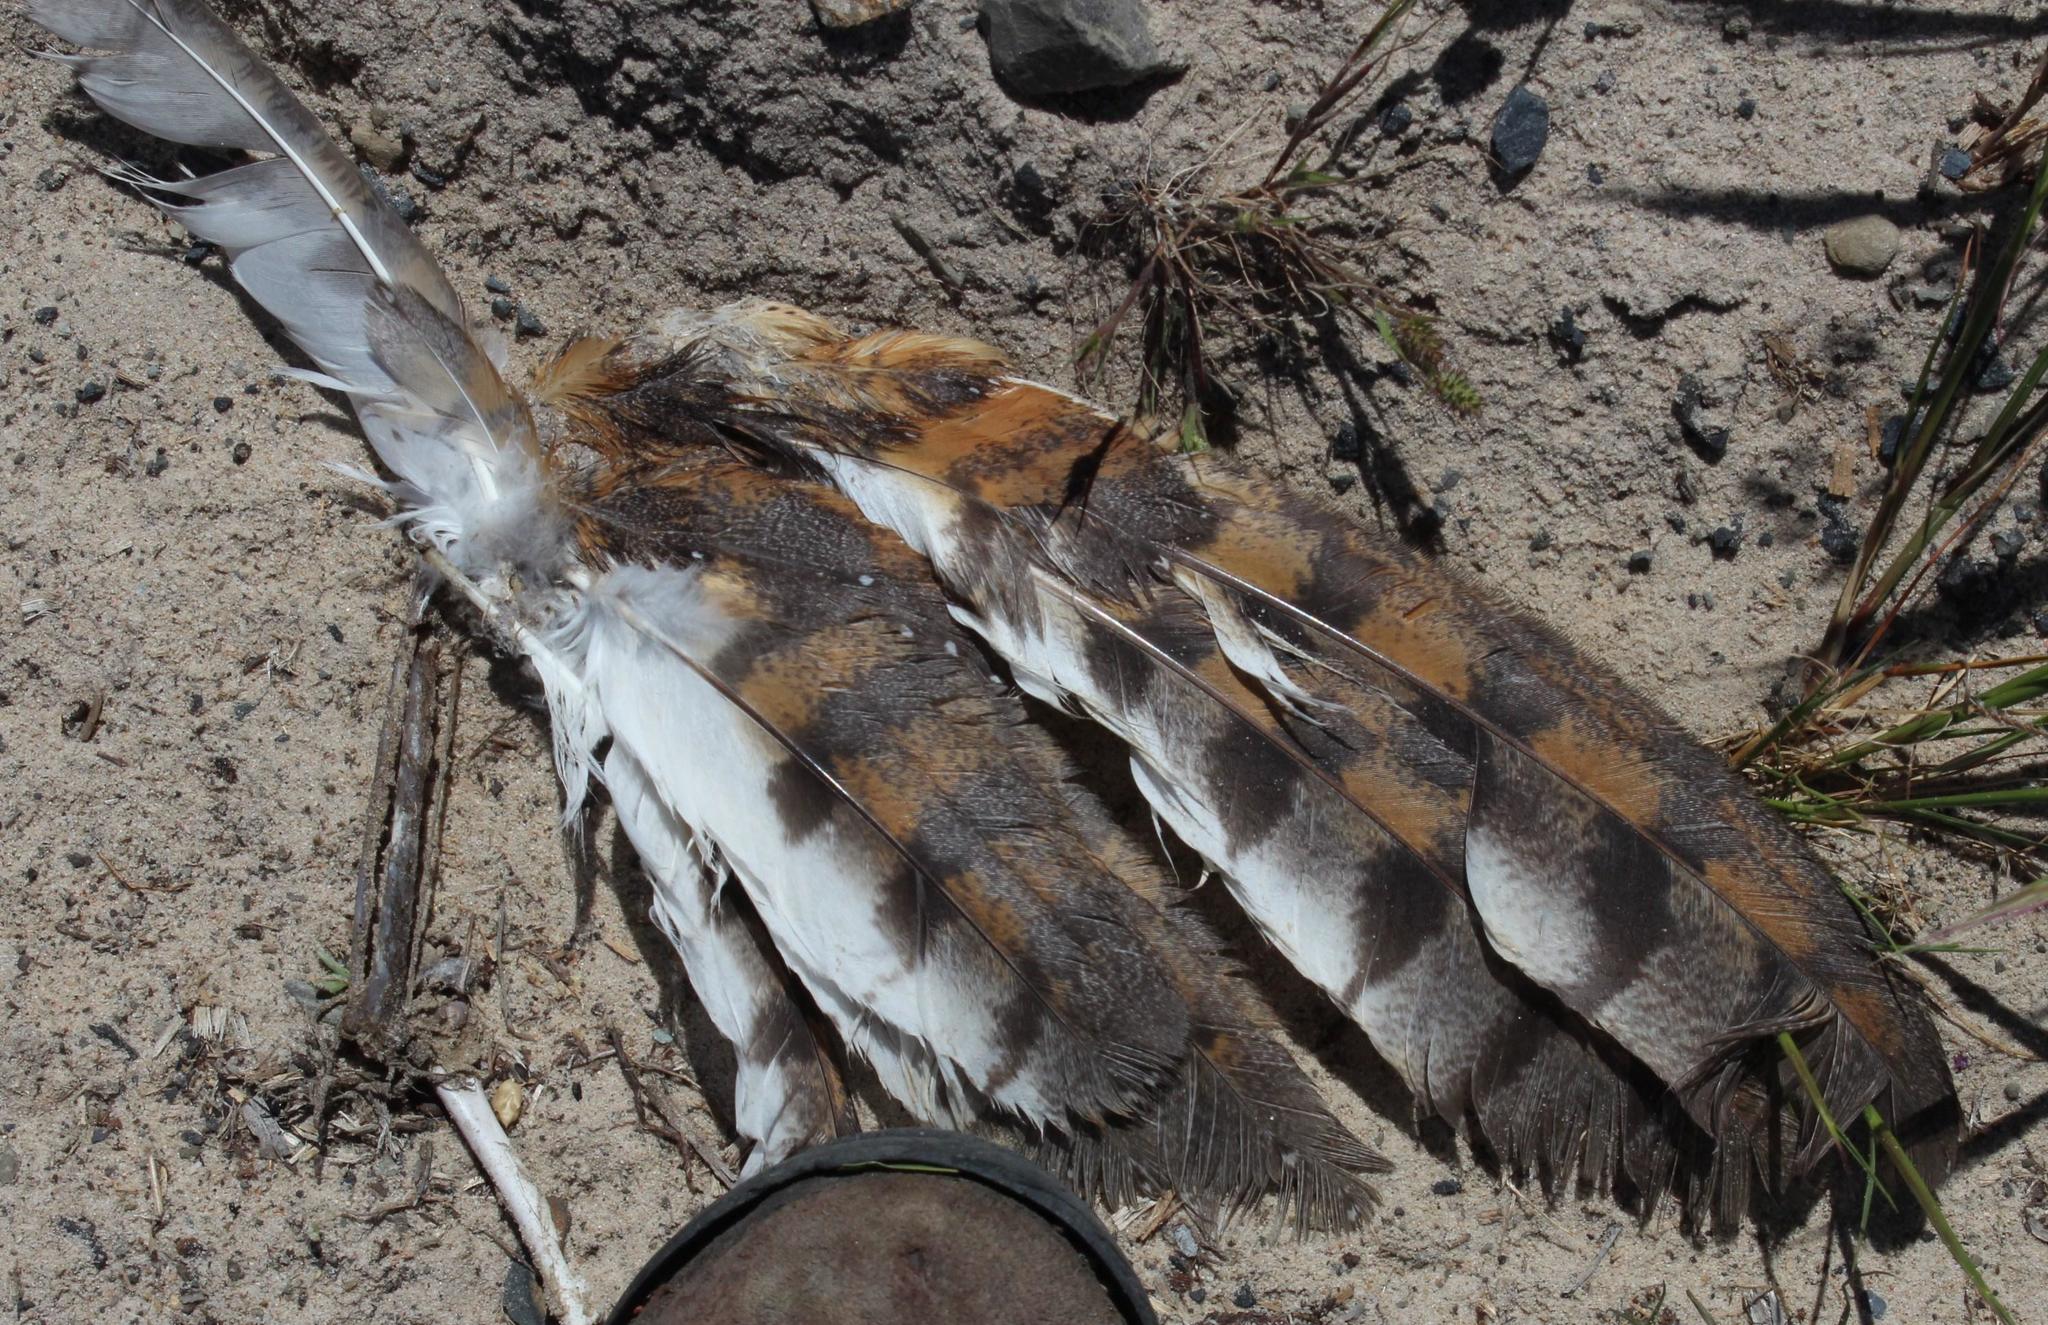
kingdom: Animalia
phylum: Chordata
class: Aves
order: Strigiformes
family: Tytonidae
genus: Tyto
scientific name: Tyto alba
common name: Barn owl
